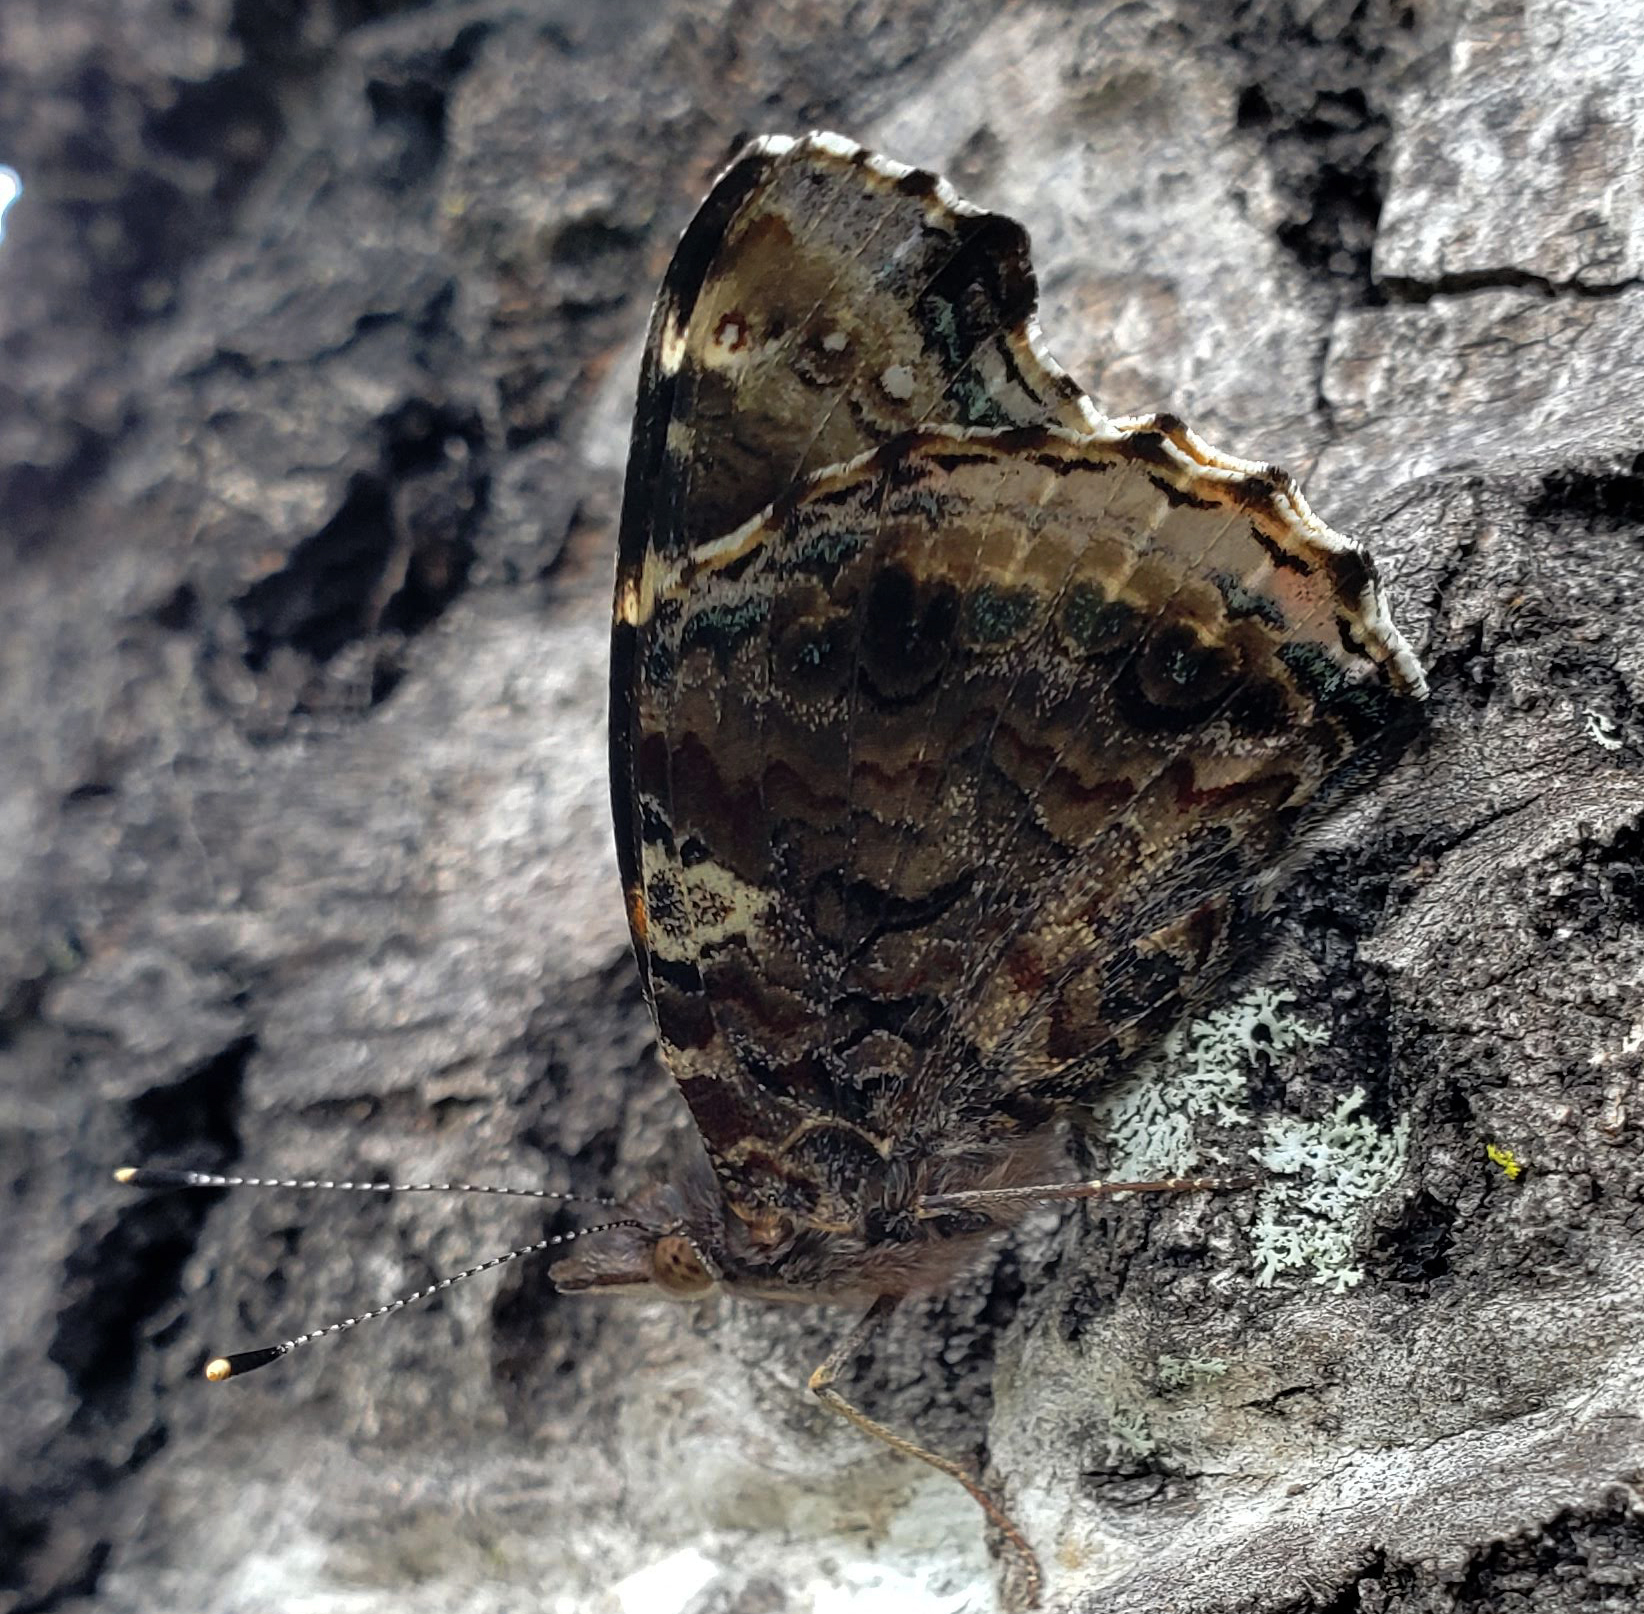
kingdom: Animalia
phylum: Arthropoda
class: Insecta
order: Lepidoptera
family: Nymphalidae
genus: Vanessa
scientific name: Vanessa atalanta
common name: Red admiral
